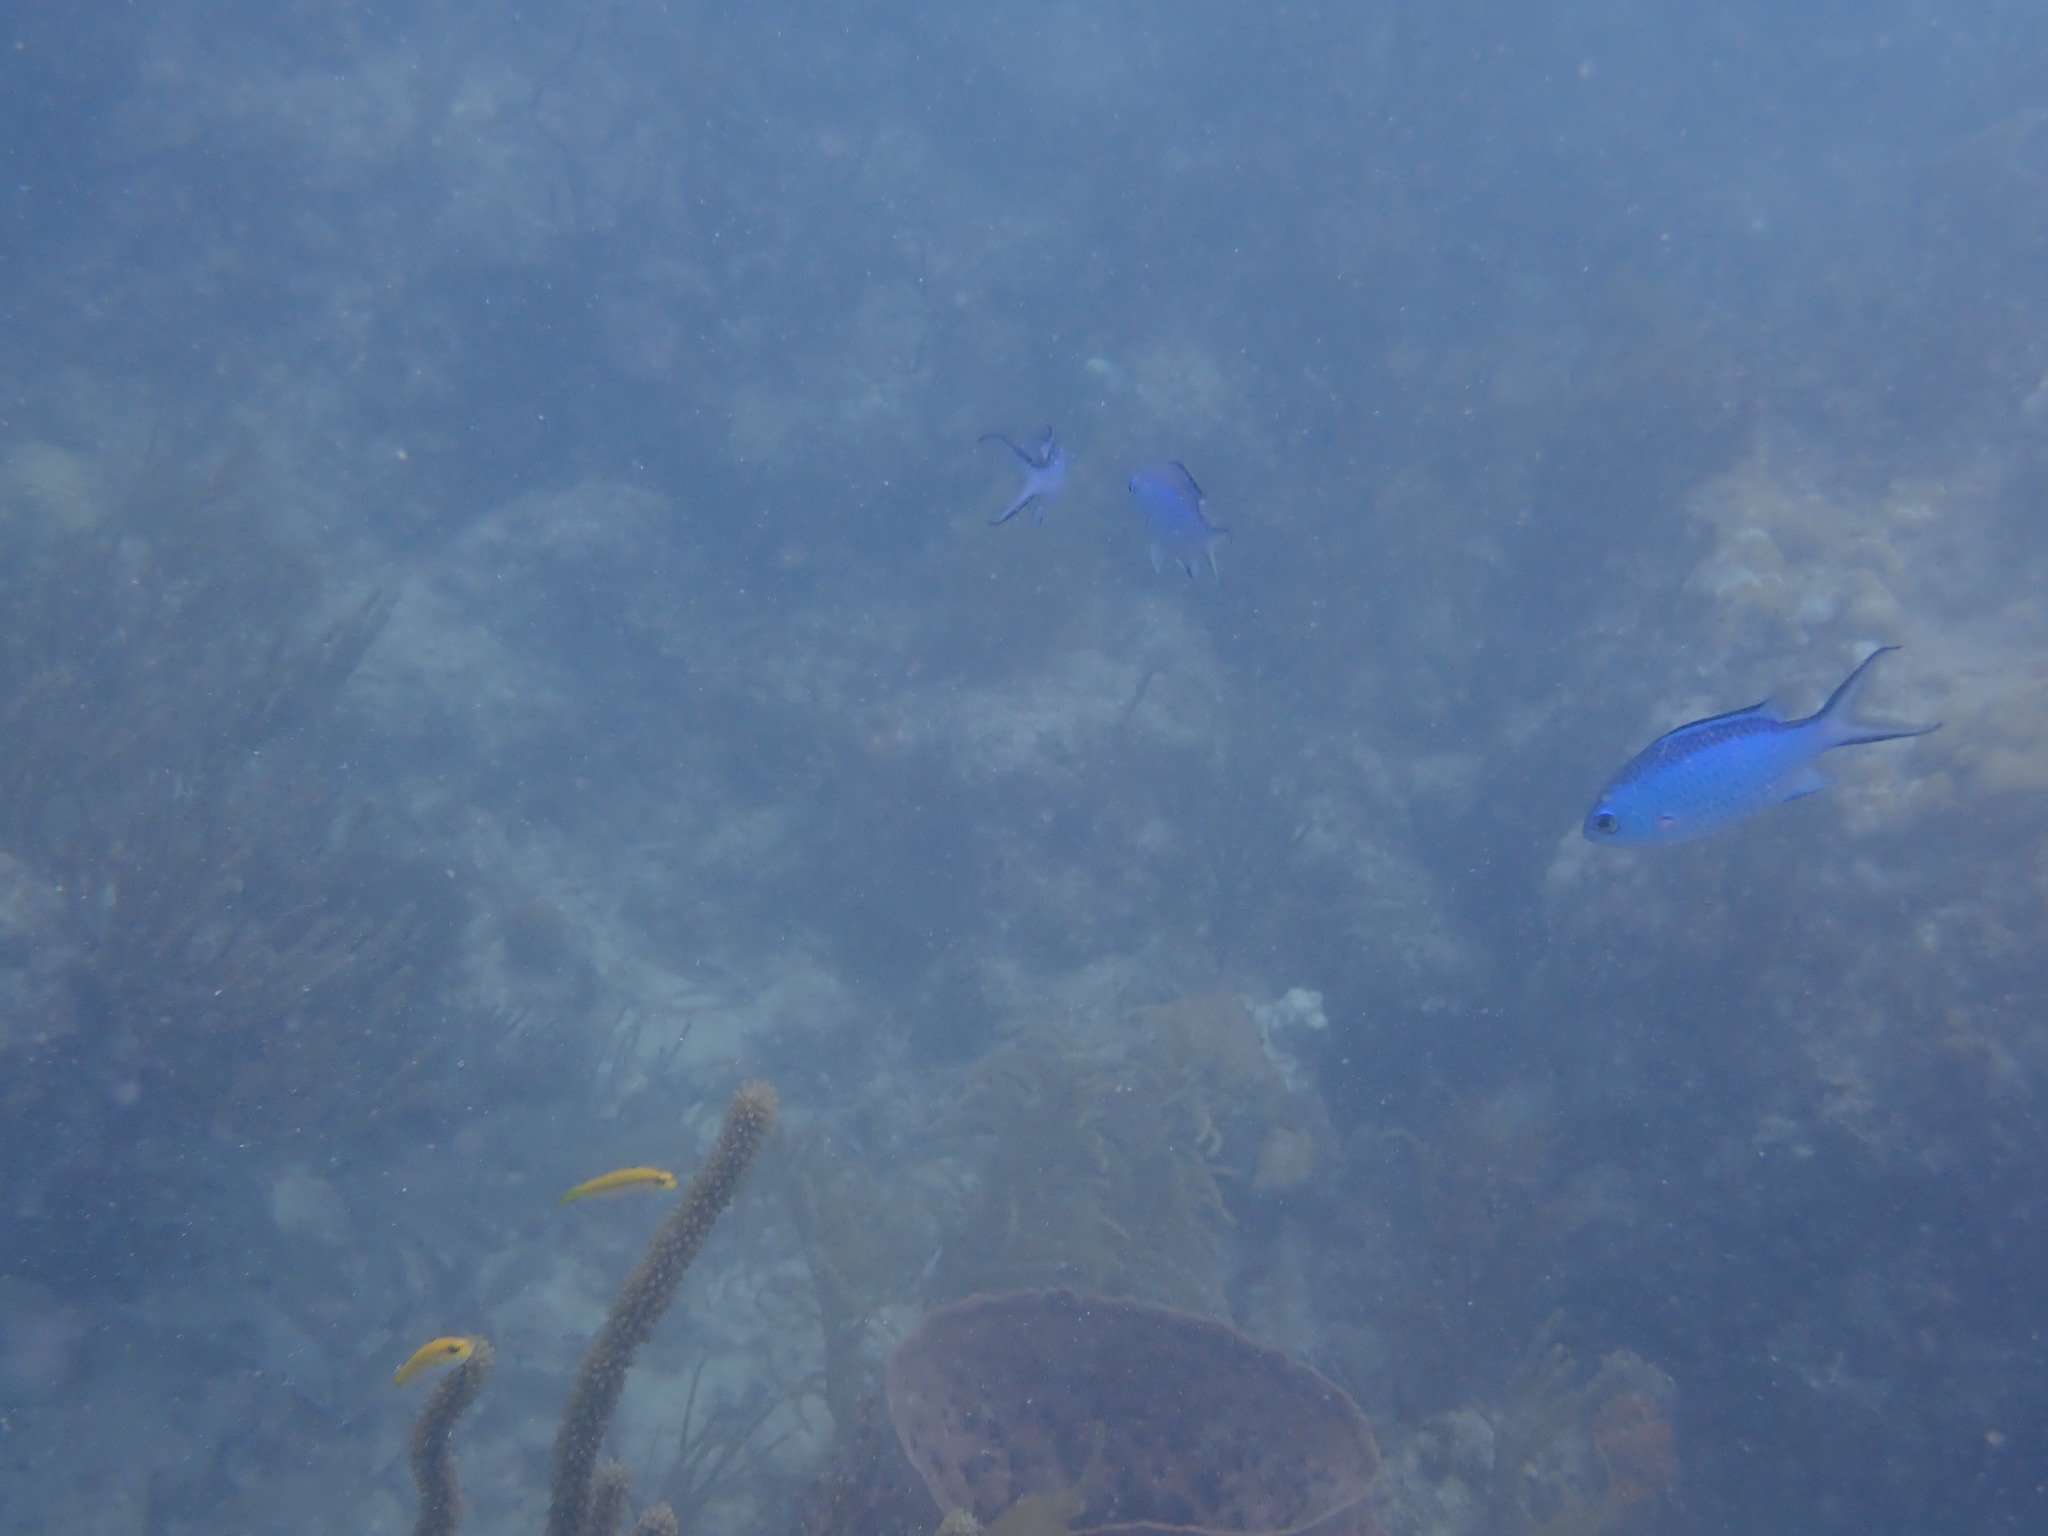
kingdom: Animalia
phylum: Chordata
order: Perciformes
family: Pomacentridae
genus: Chromis
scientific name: Chromis cyanea
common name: Blue chromis
